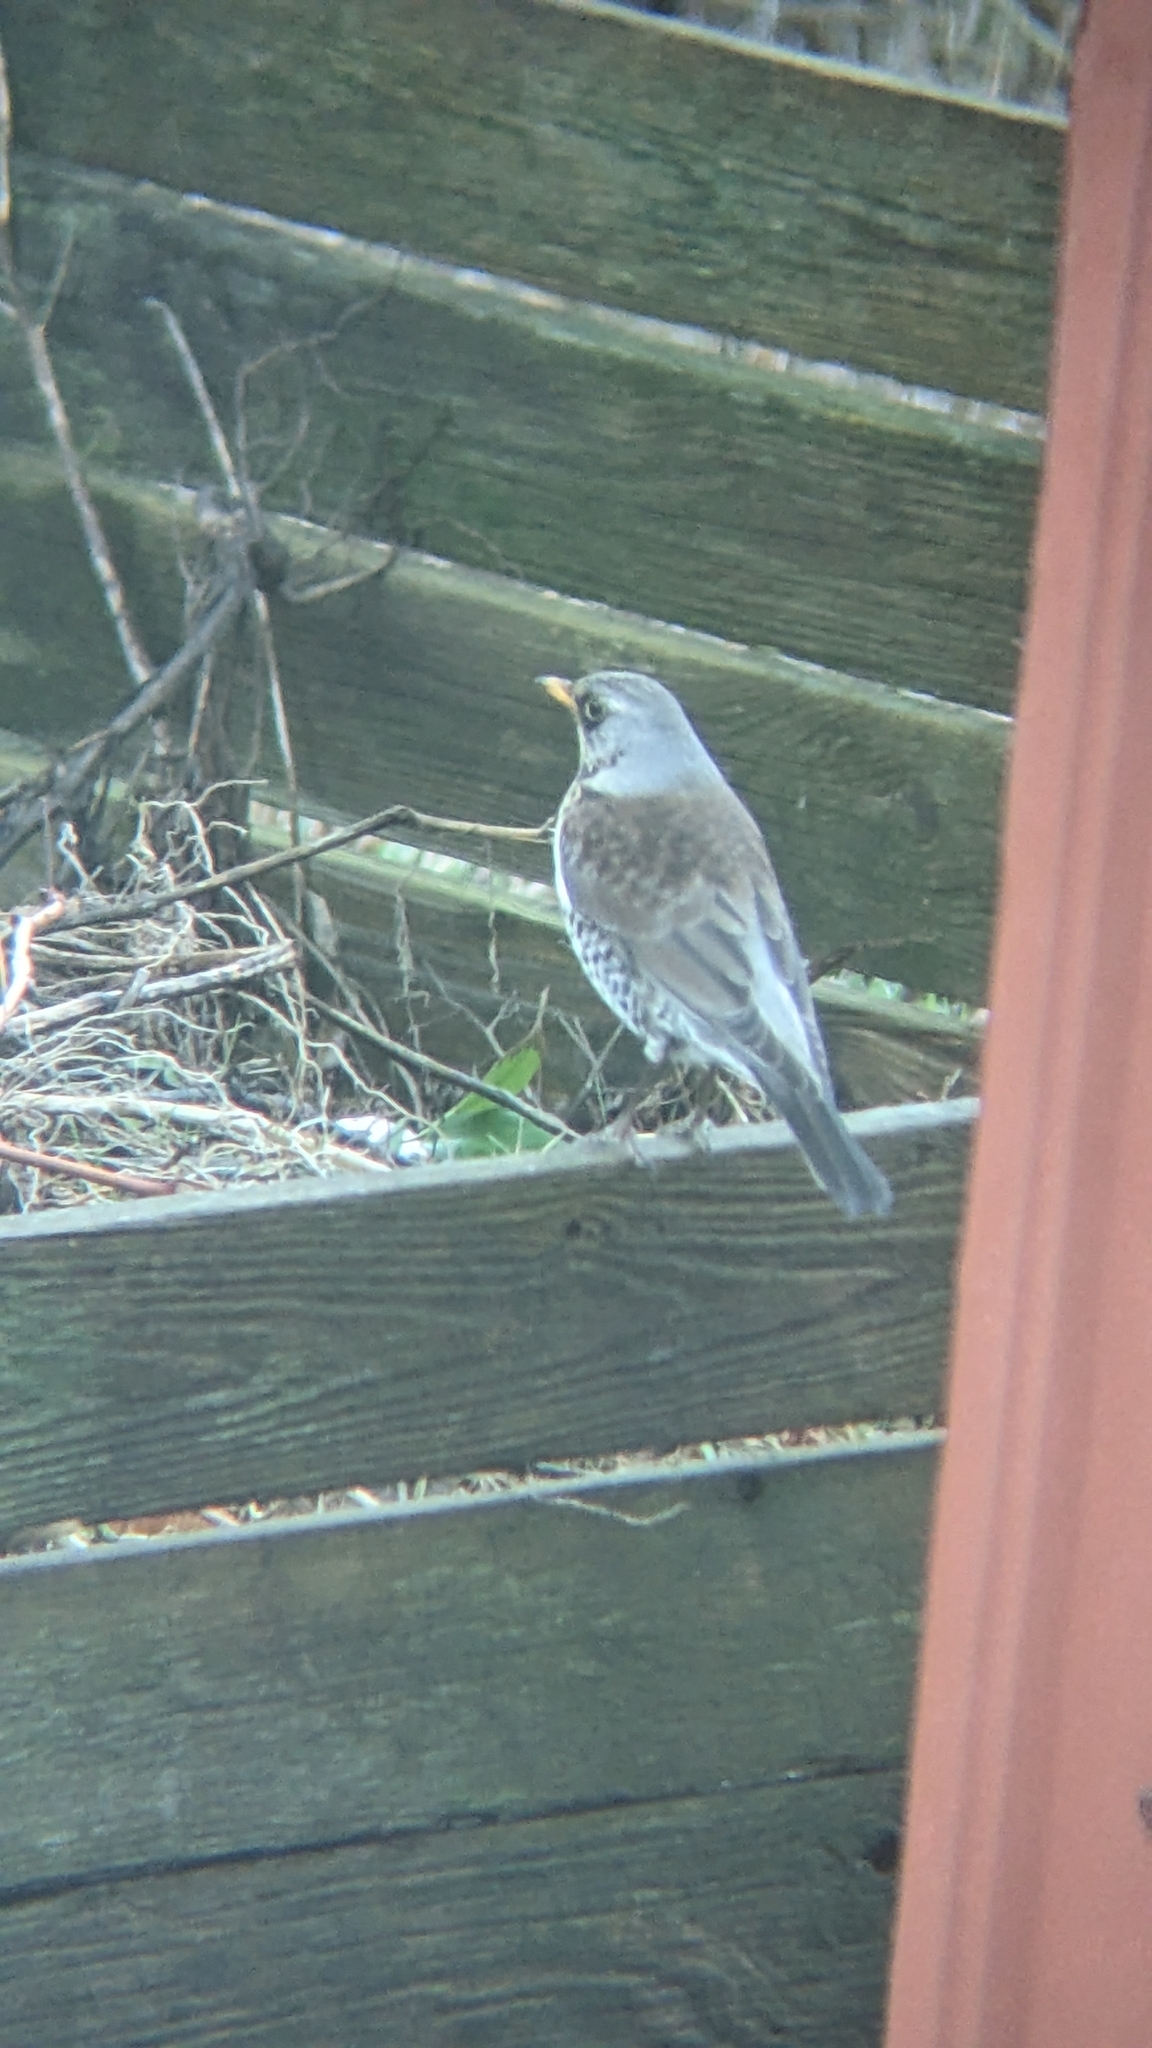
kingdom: Animalia
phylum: Chordata
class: Aves
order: Passeriformes
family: Turdidae
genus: Turdus
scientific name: Turdus pilaris
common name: Fieldfare
